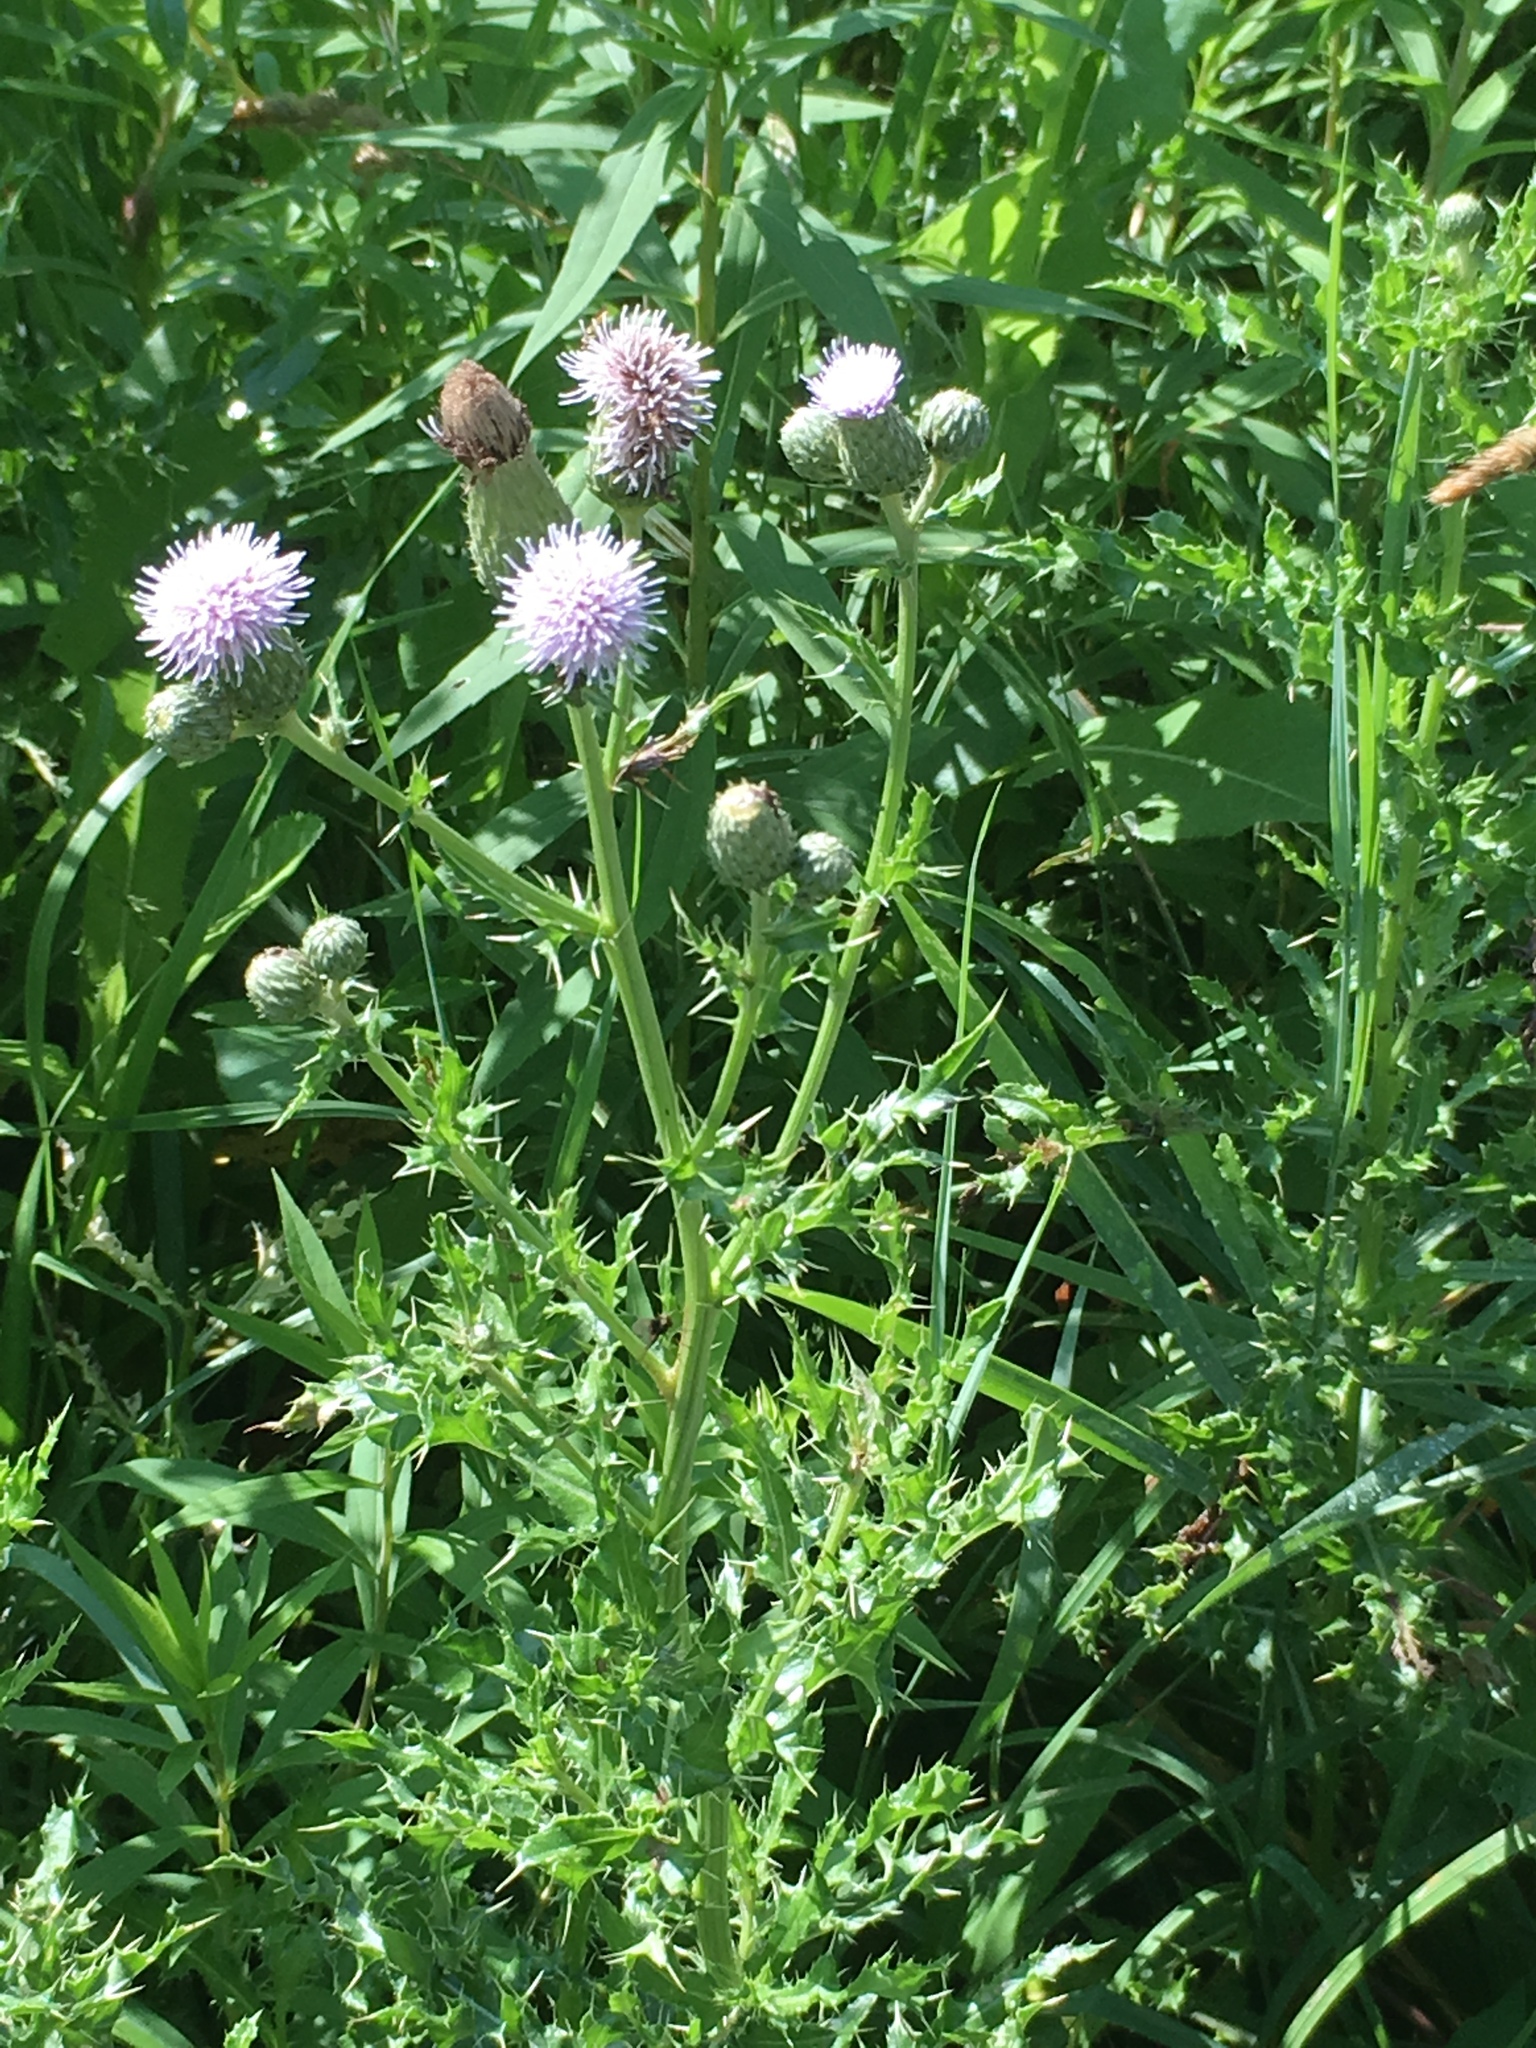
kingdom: Plantae
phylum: Tracheophyta
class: Magnoliopsida
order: Asterales
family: Asteraceae
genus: Cirsium
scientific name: Cirsium arvense
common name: Creeping thistle
